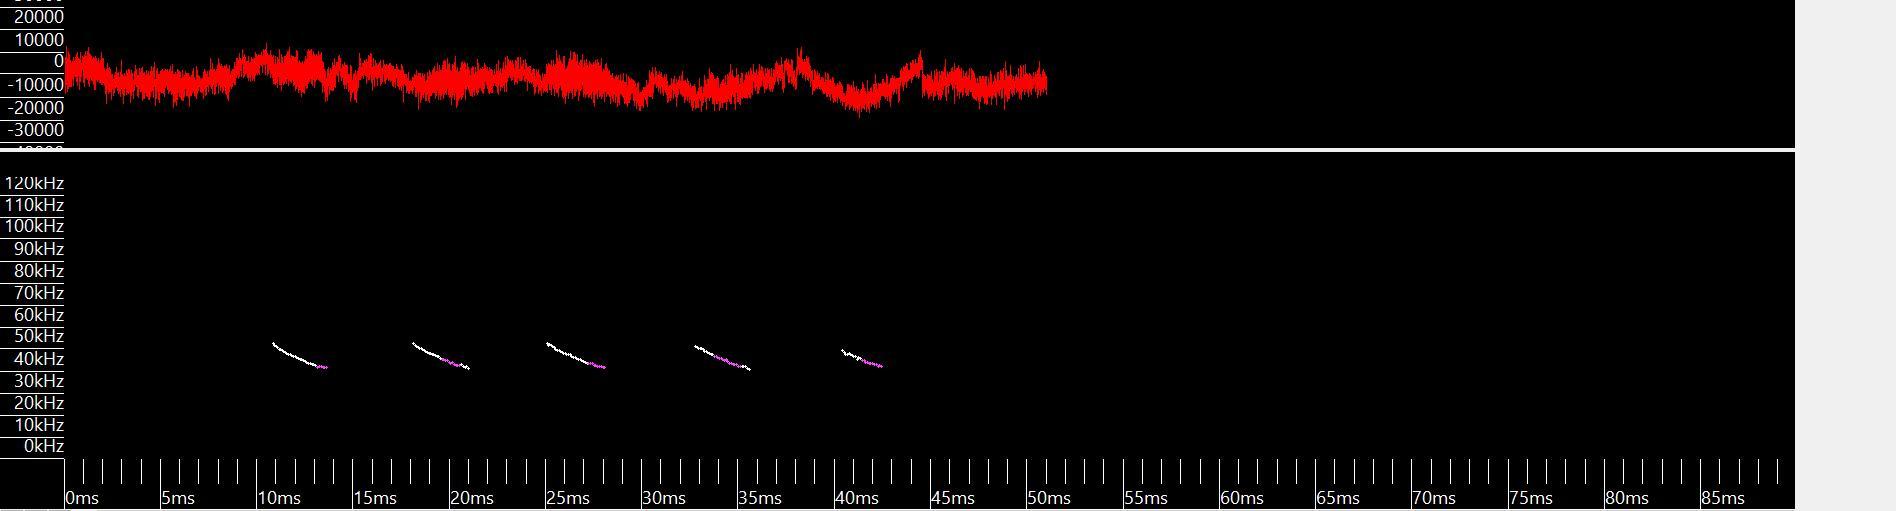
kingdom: Animalia
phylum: Chordata
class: Mammalia
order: Chiroptera
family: Vespertilionidae
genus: Lasiurus
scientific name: Lasiurus borealis
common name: Eastern red bat
